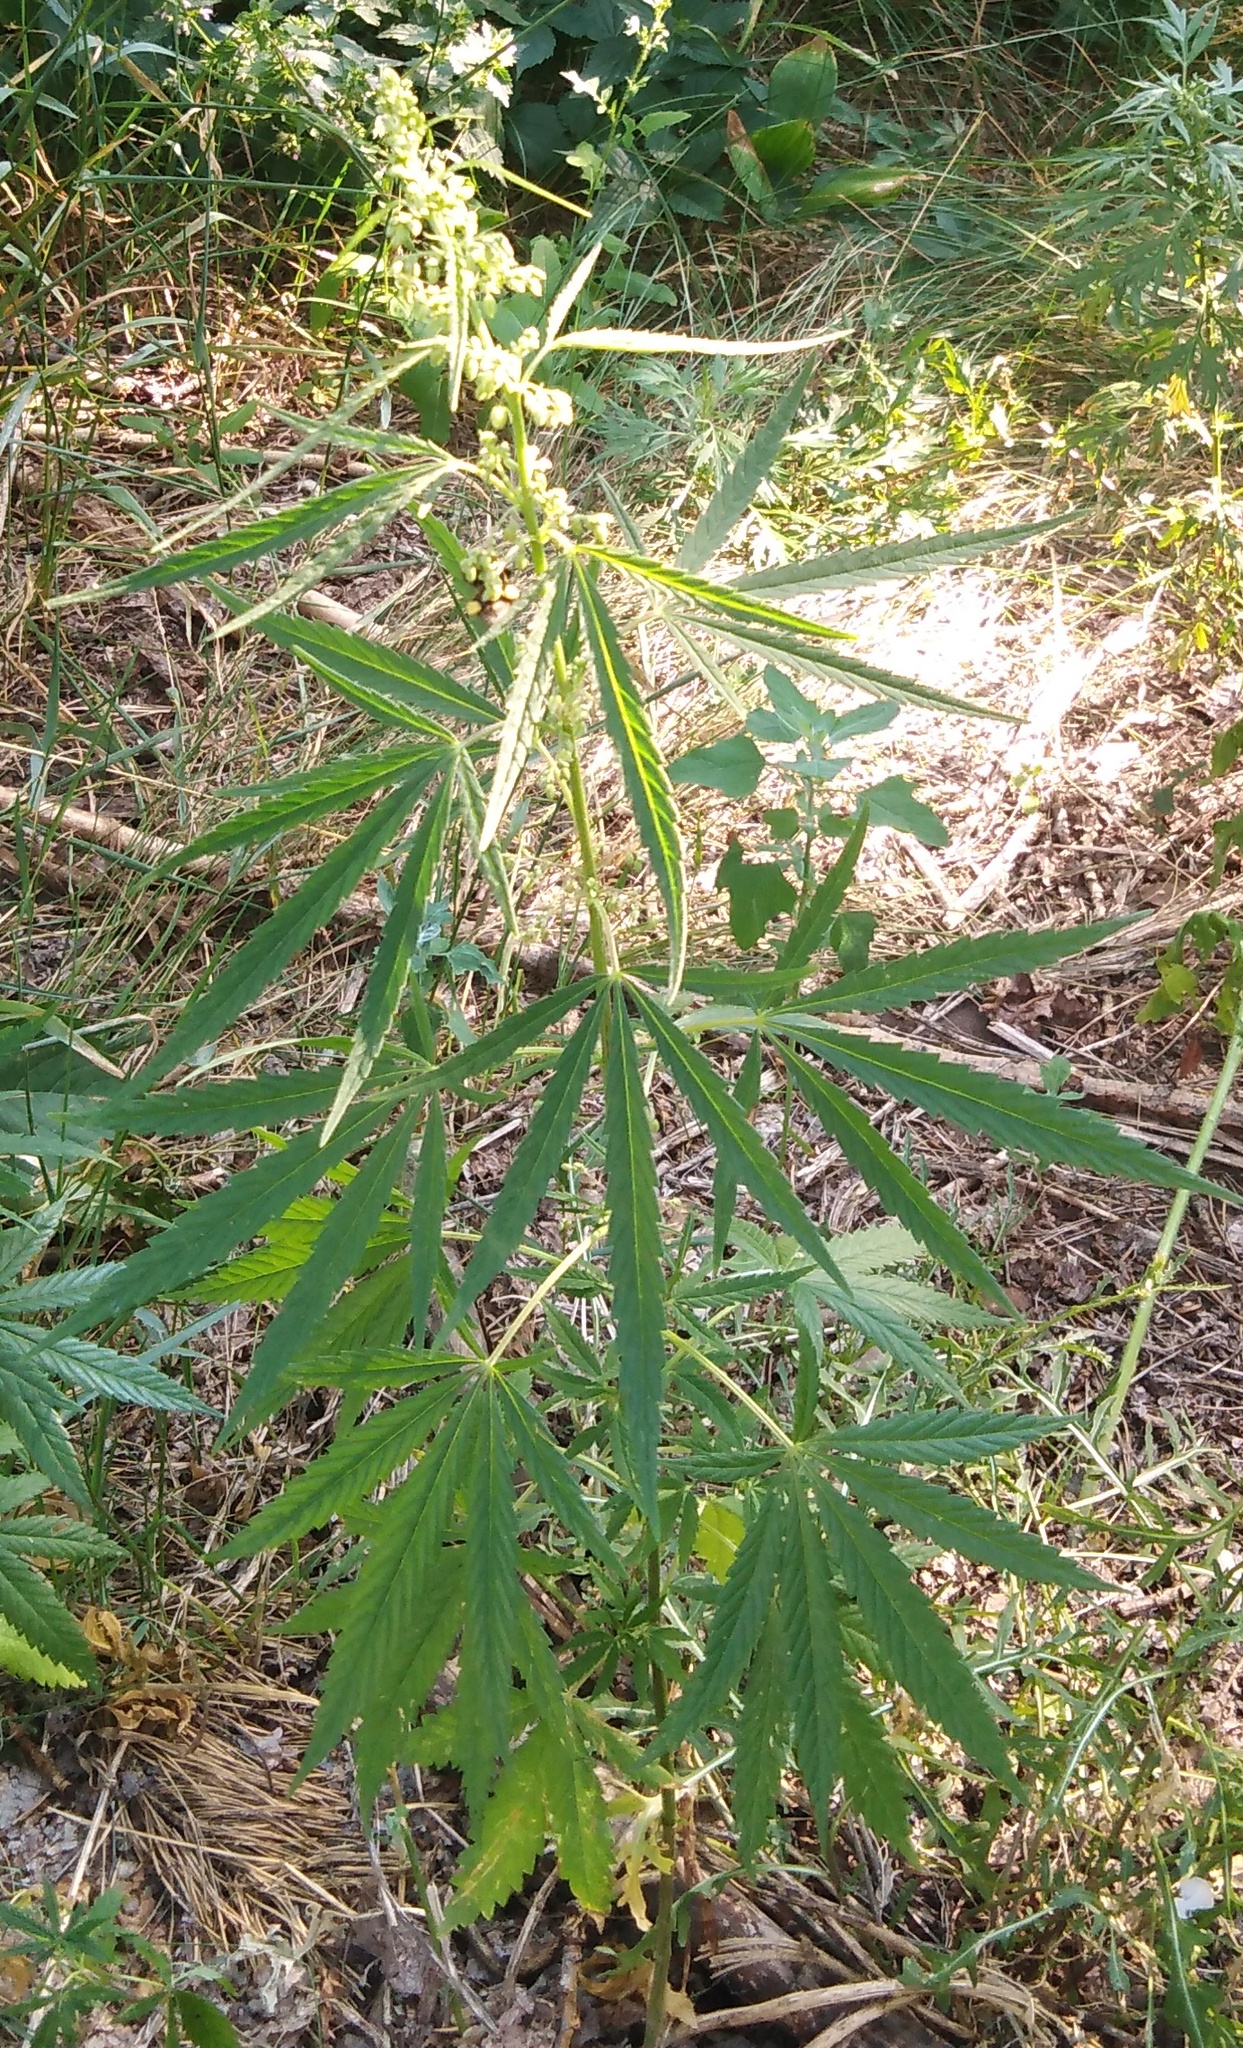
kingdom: Plantae
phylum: Tracheophyta
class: Magnoliopsida
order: Rosales
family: Cannabaceae
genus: Cannabis
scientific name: Cannabis sativa
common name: Hemp
